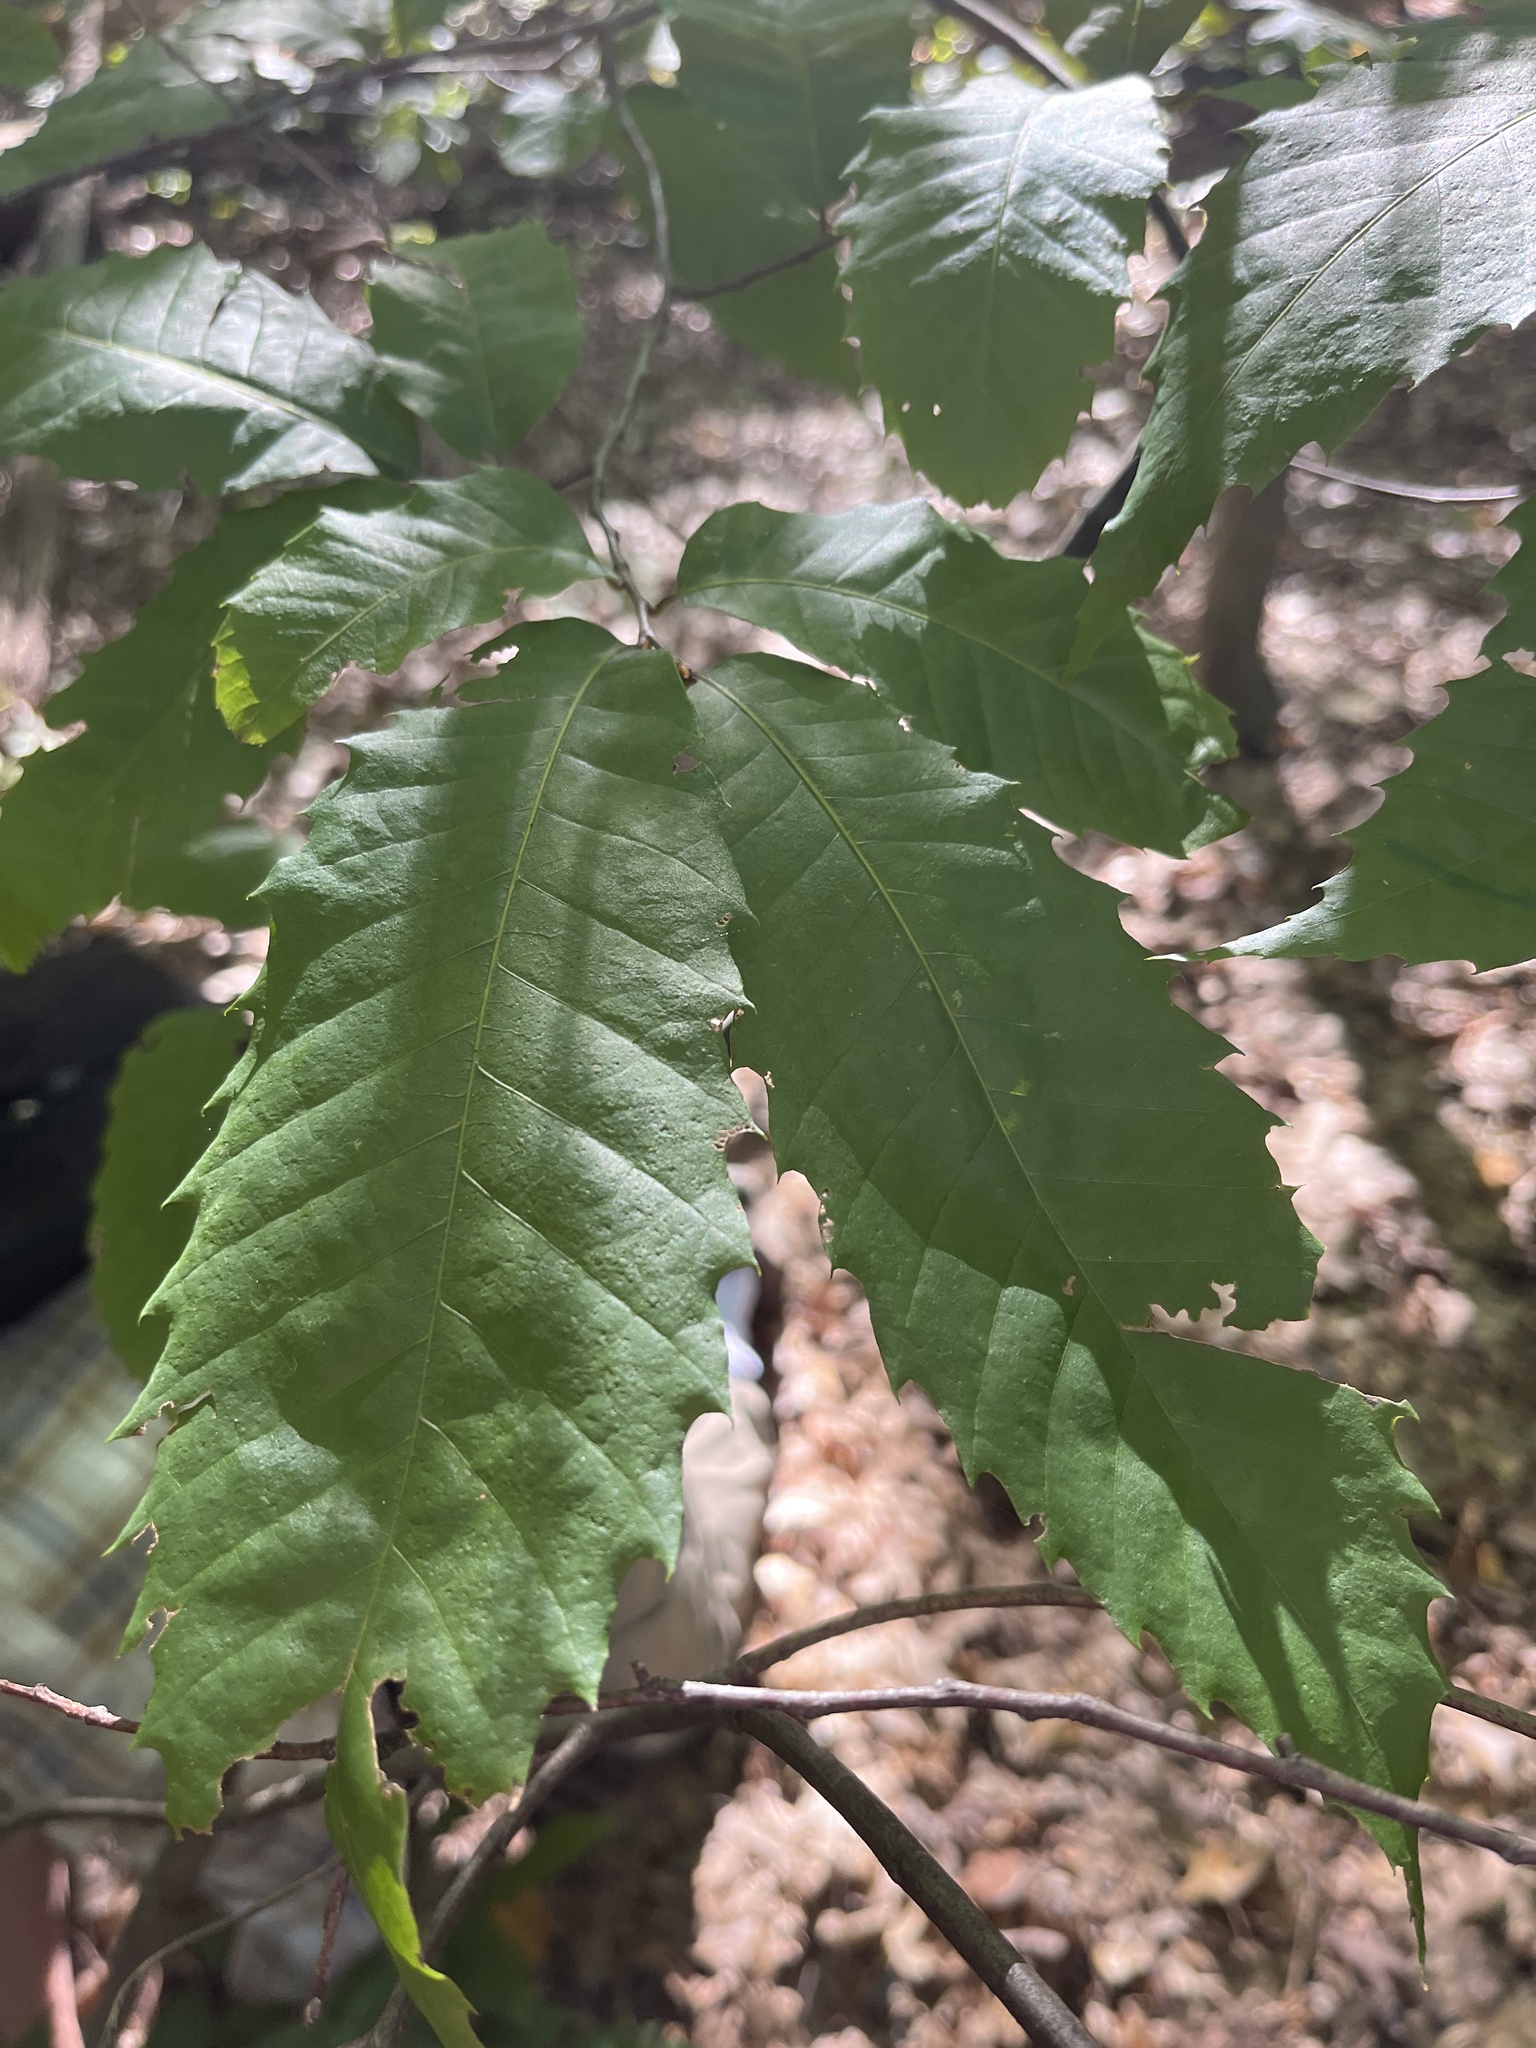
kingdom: Plantae
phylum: Tracheophyta
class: Magnoliopsida
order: Fagales
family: Fagaceae
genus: Castanea
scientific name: Castanea dentata
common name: American chestnut
